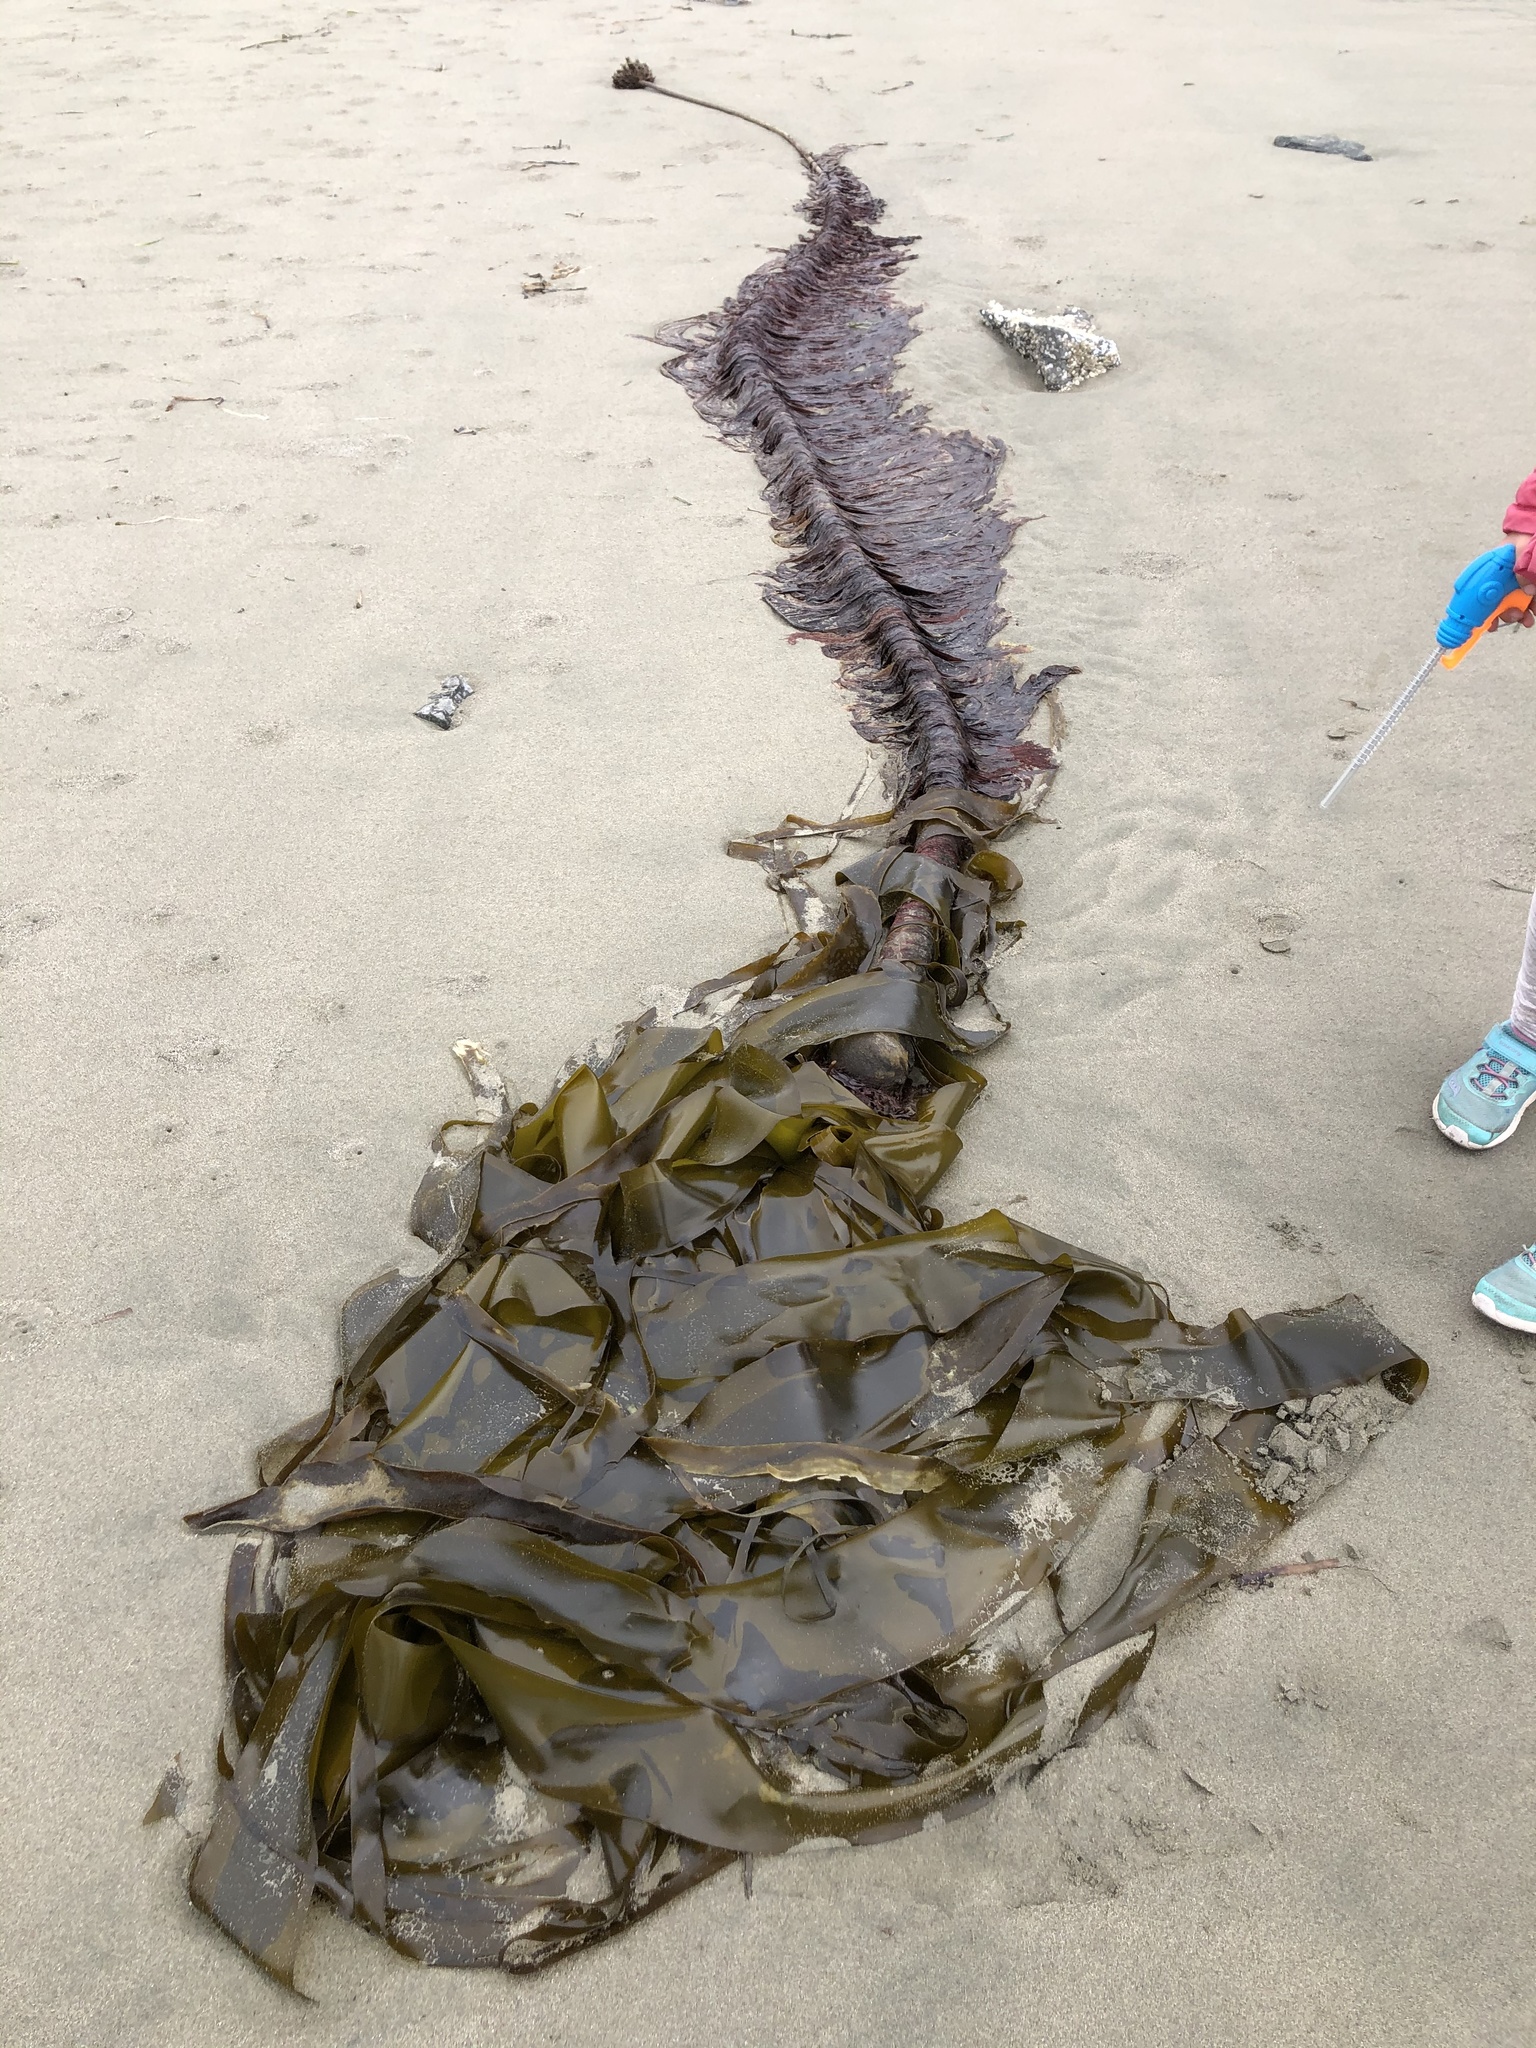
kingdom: Chromista
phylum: Ochrophyta
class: Phaeophyceae
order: Laminariales
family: Laminariaceae
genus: Nereocystis
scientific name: Nereocystis luetkeana
